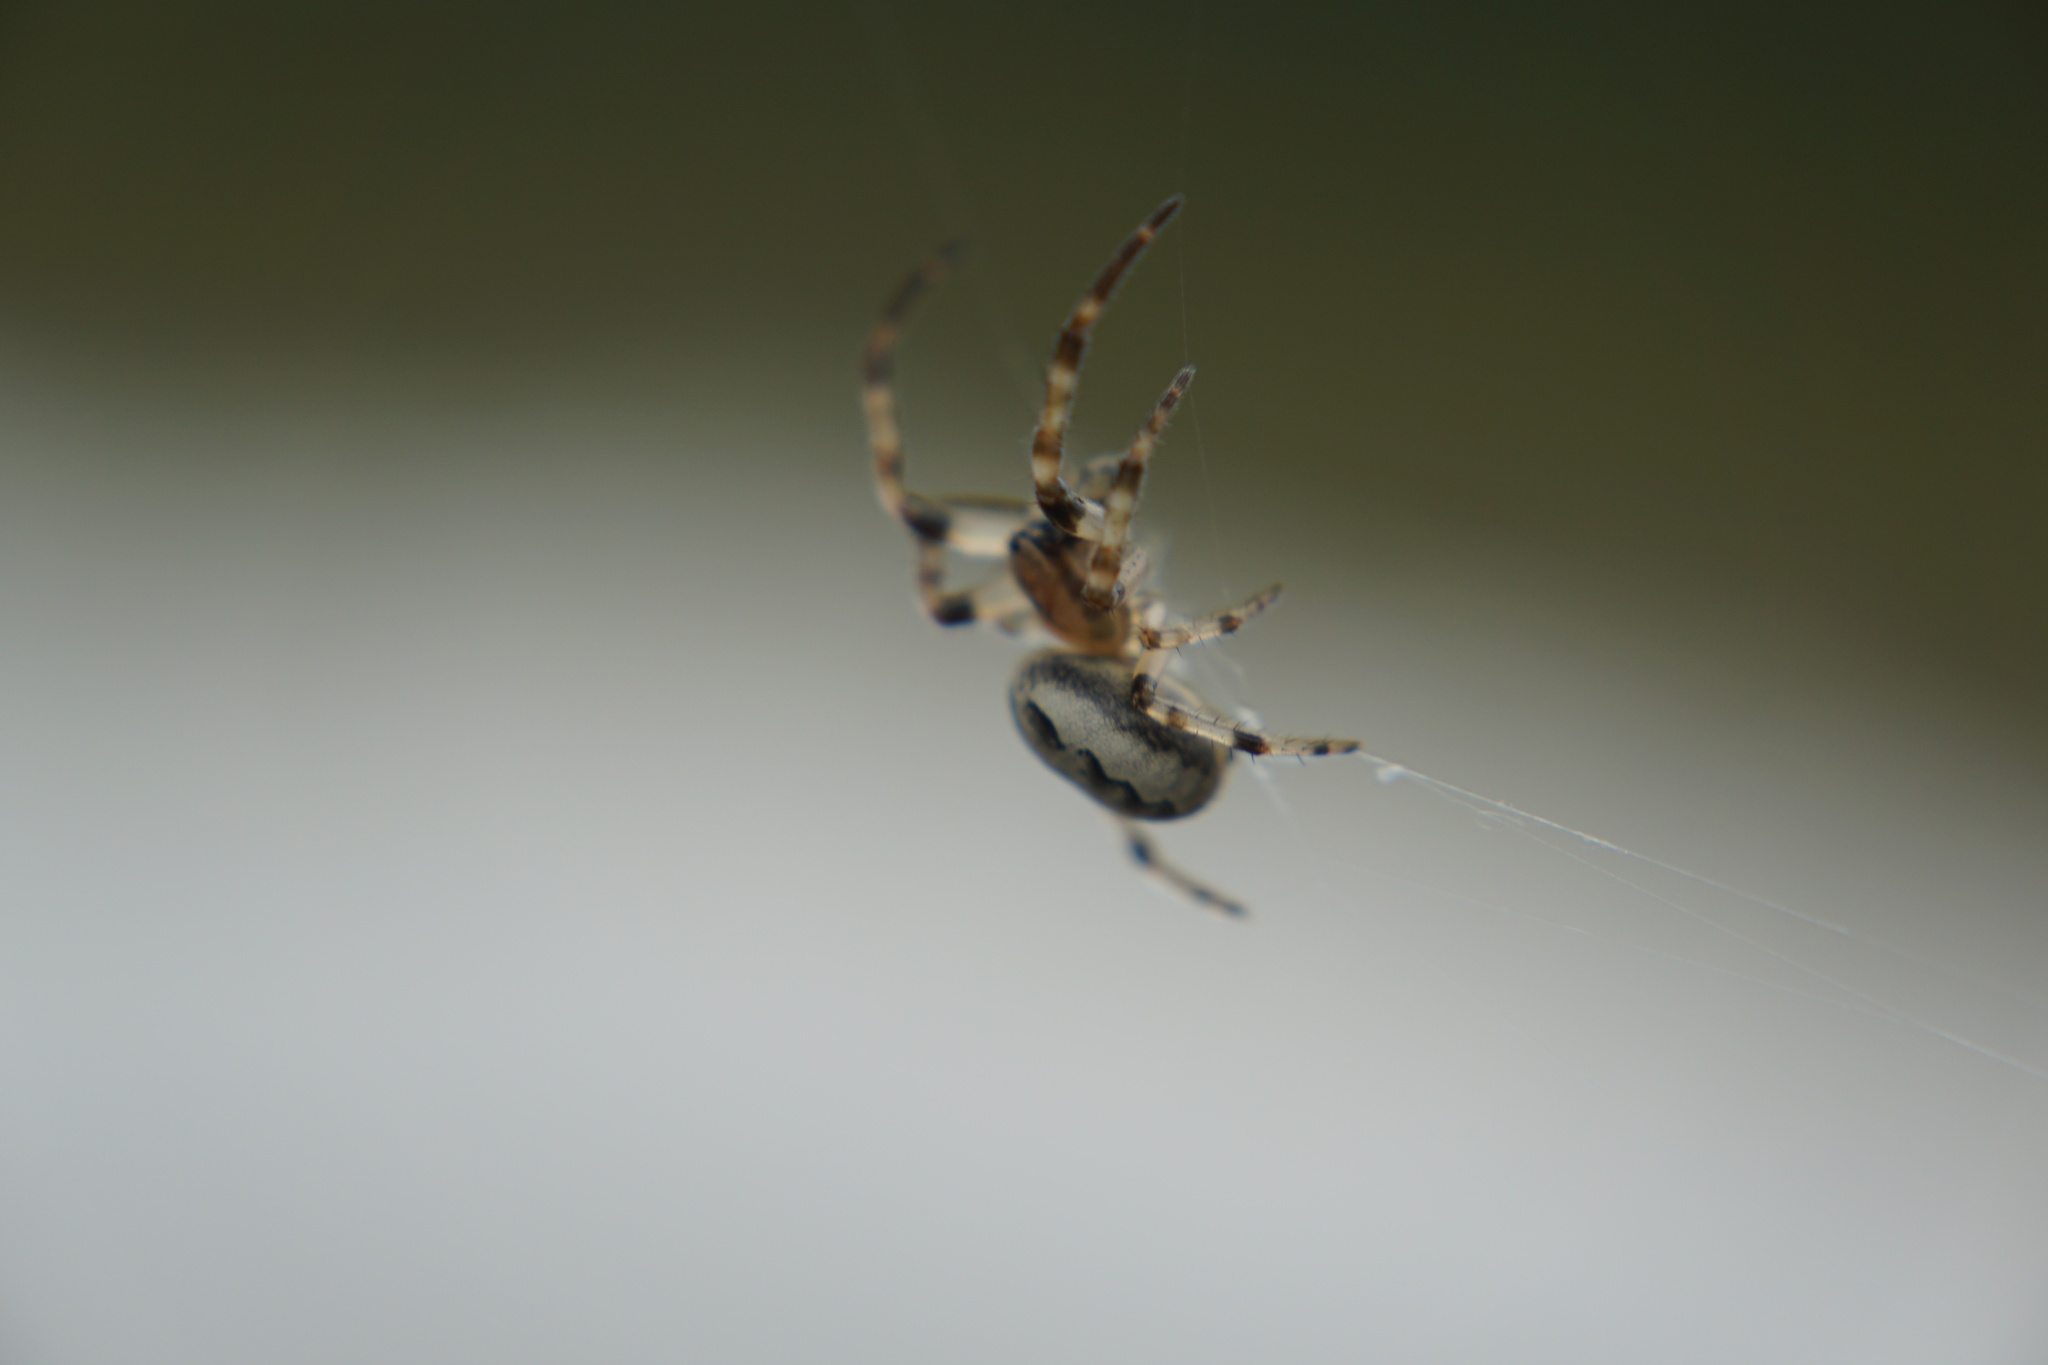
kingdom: Animalia
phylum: Arthropoda
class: Arachnida
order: Araneae
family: Araneidae
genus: Larinioides
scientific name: Larinioides cornutus
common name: Furrow orbweaver
